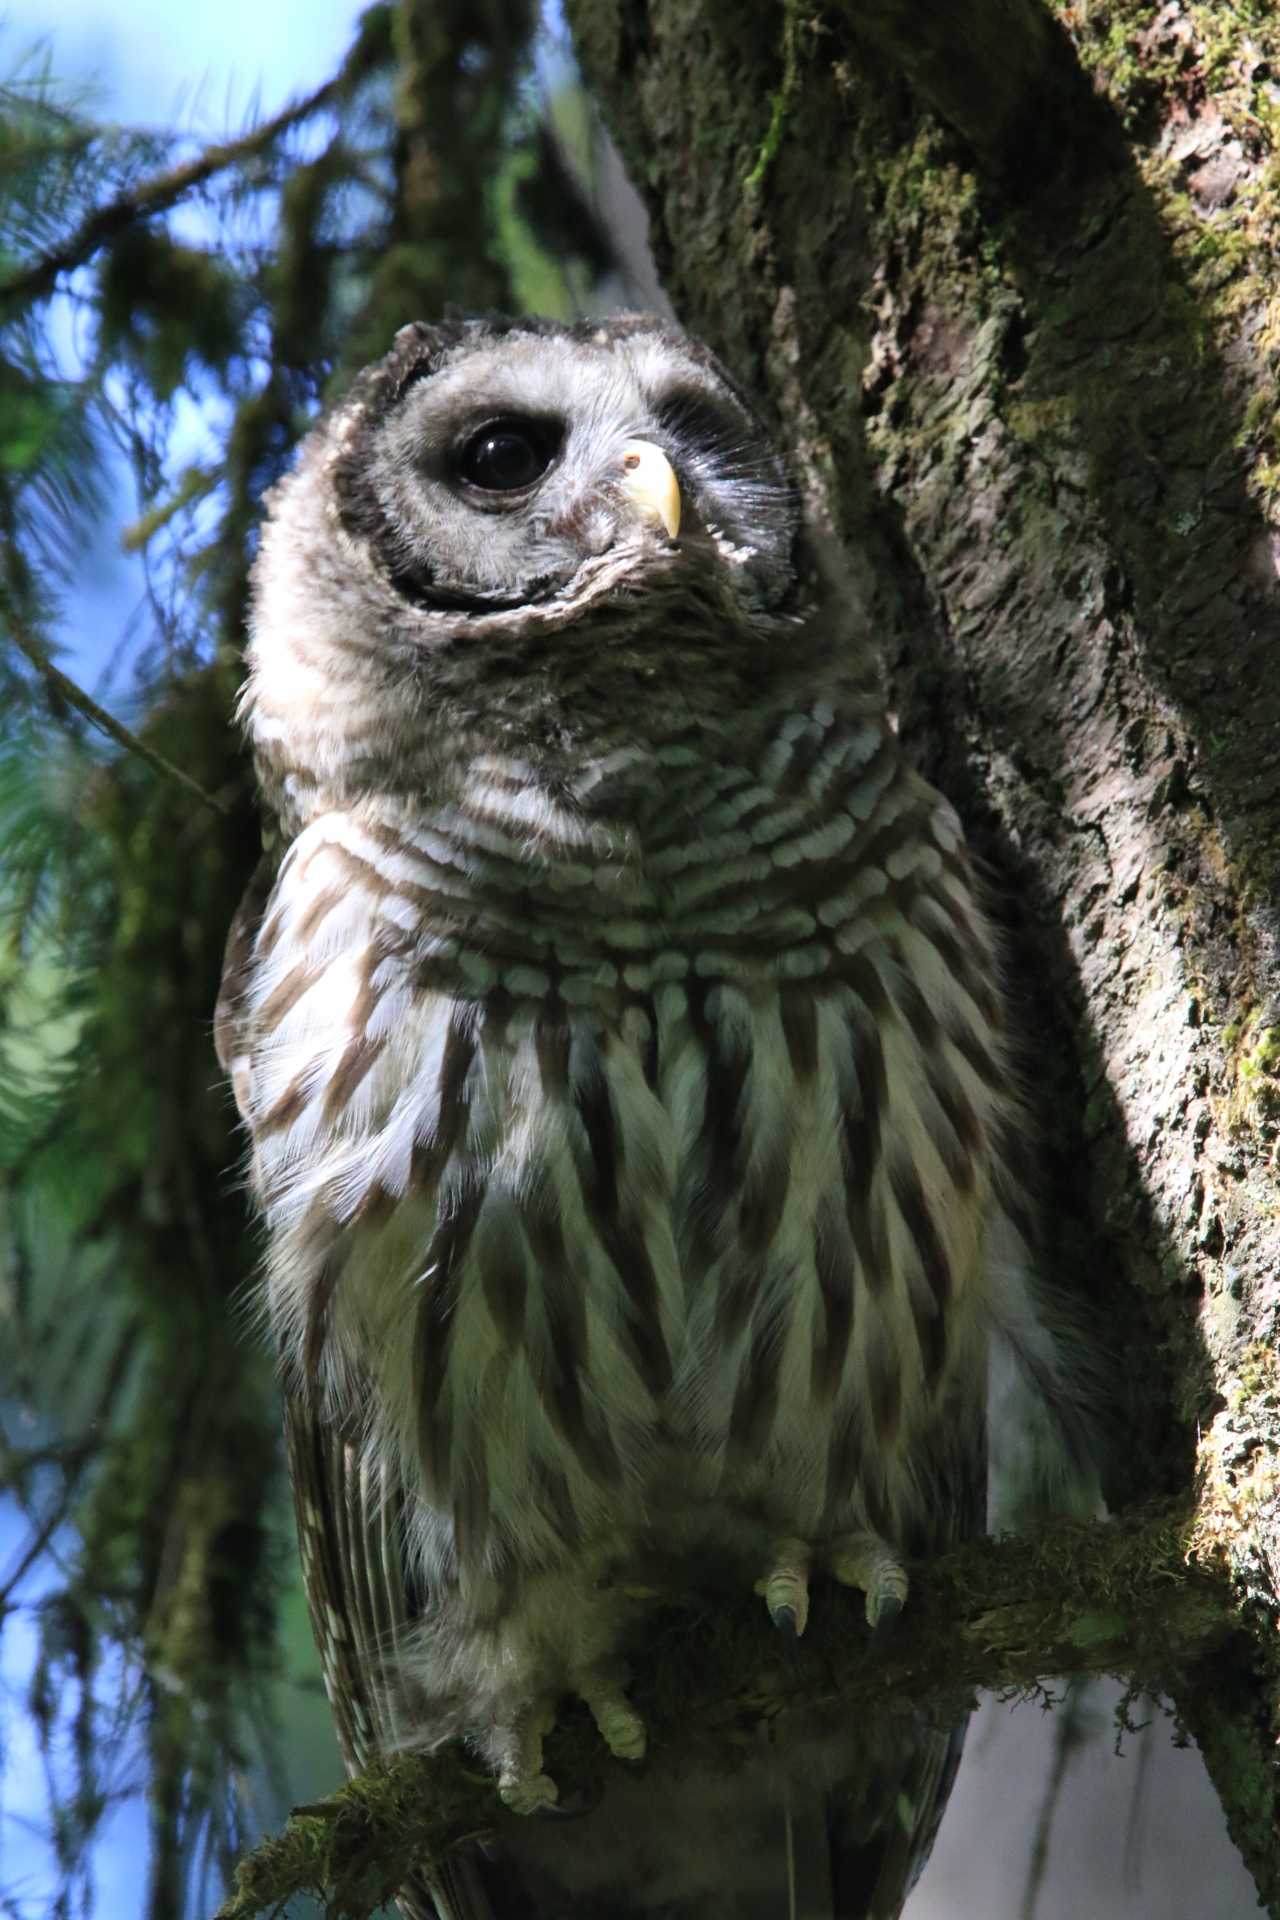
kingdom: Animalia
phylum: Chordata
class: Aves
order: Strigiformes
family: Strigidae
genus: Strix
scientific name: Strix varia
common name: Barred owl
